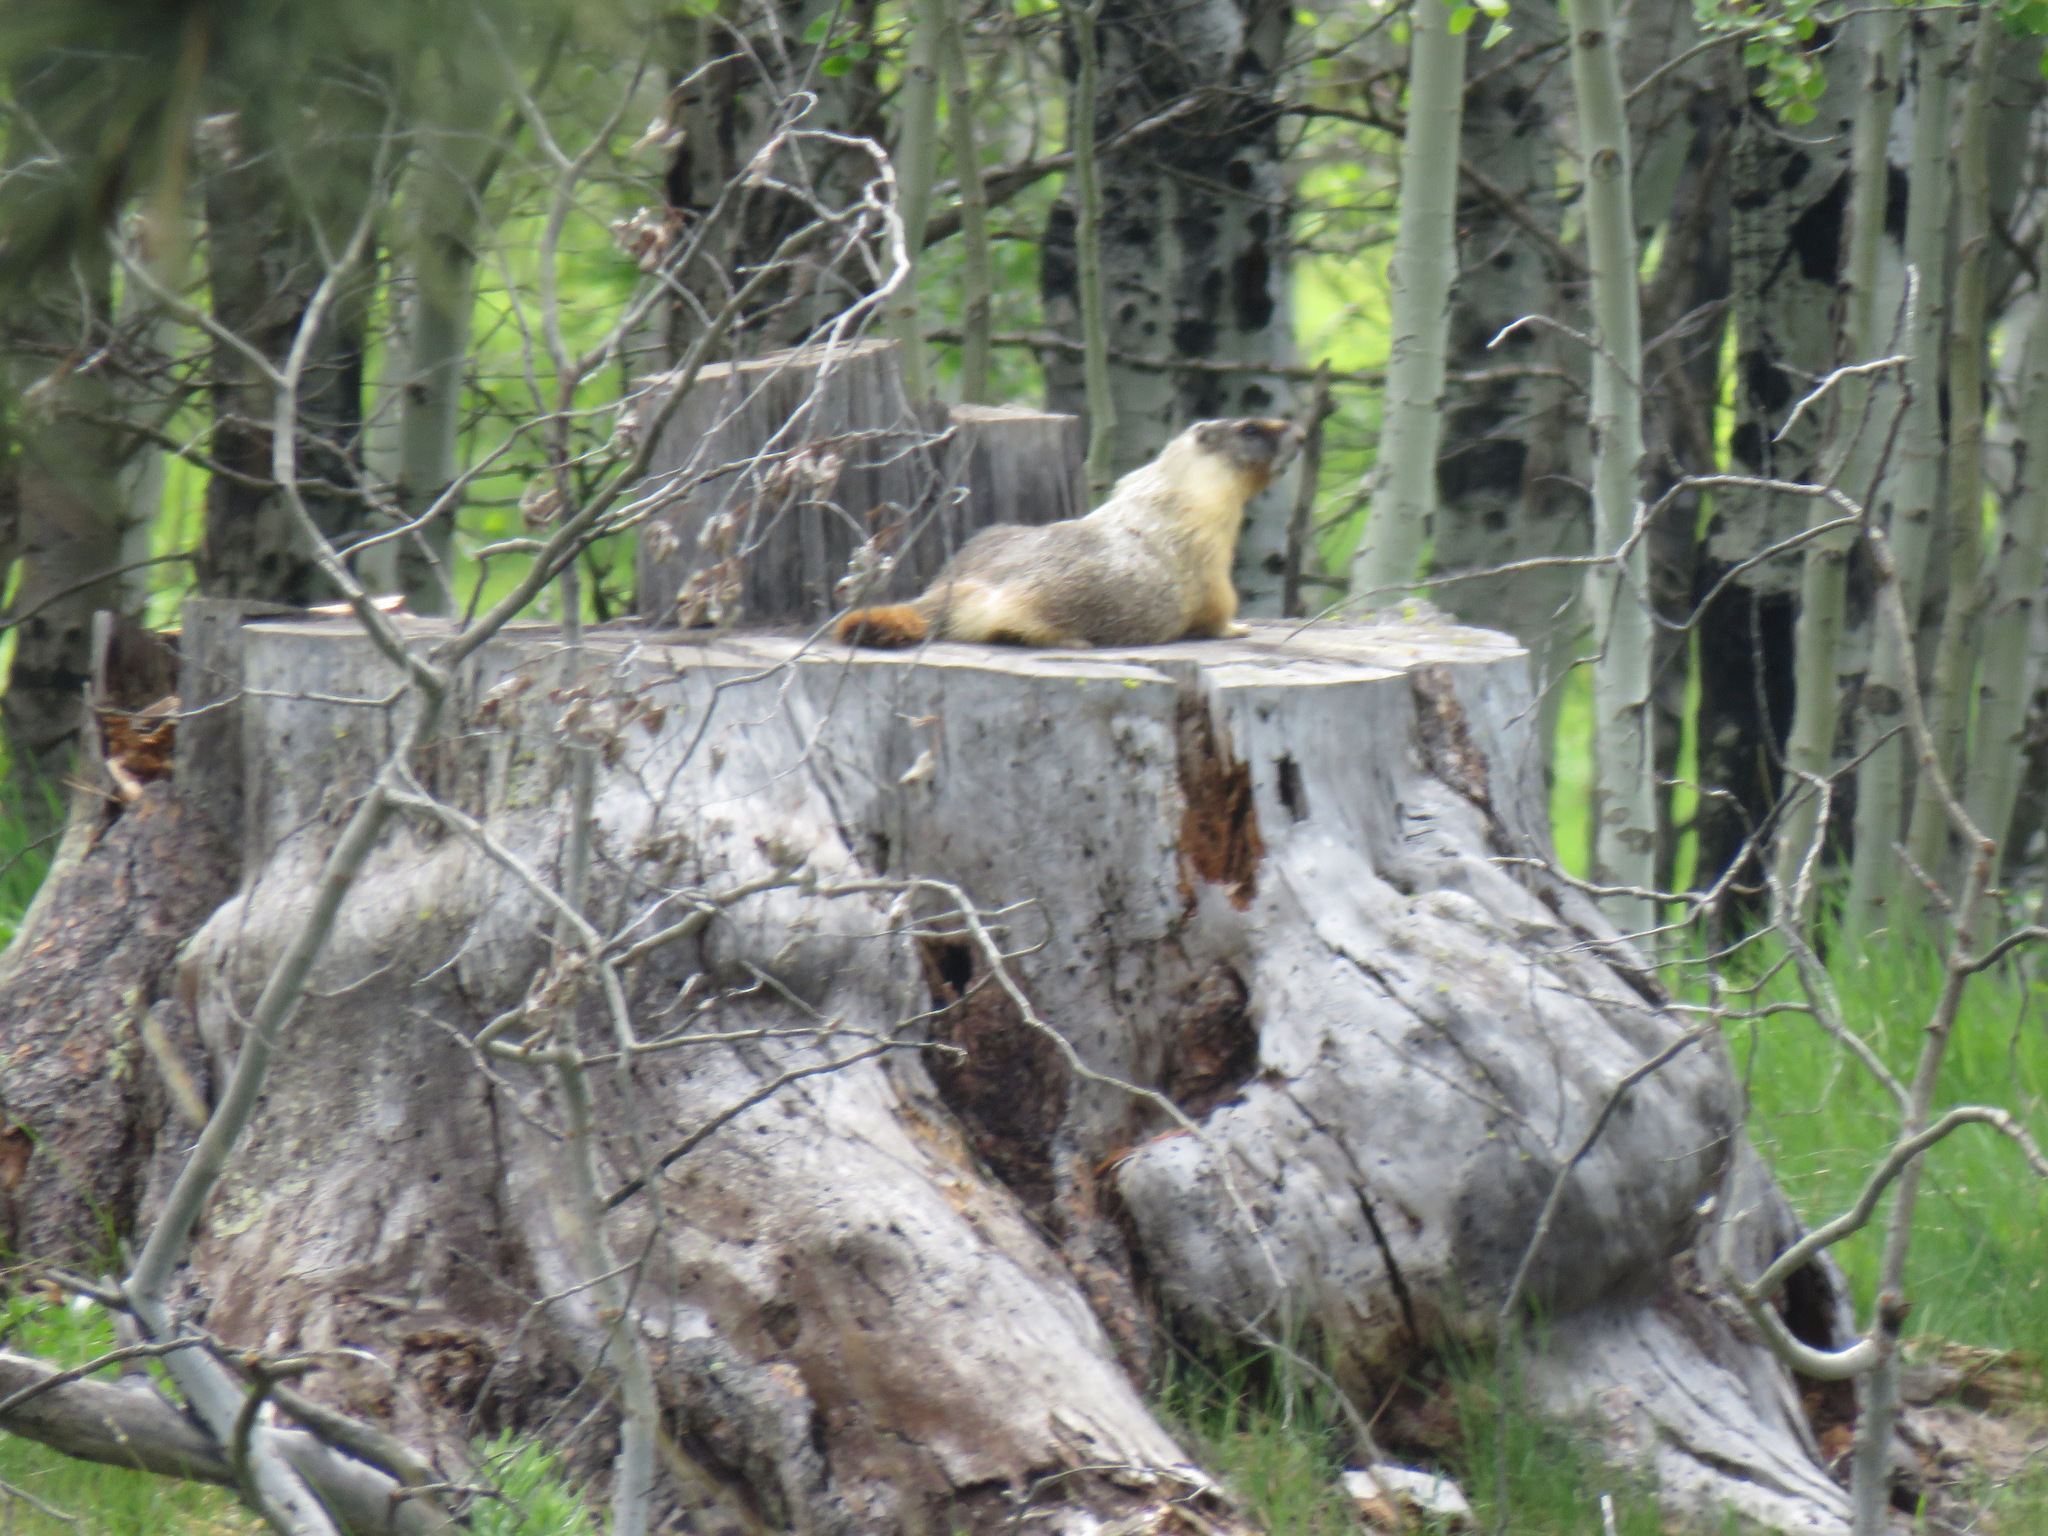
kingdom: Animalia
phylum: Chordata
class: Mammalia
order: Rodentia
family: Sciuridae
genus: Marmota
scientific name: Marmota flaviventris
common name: Yellow-bellied marmot
